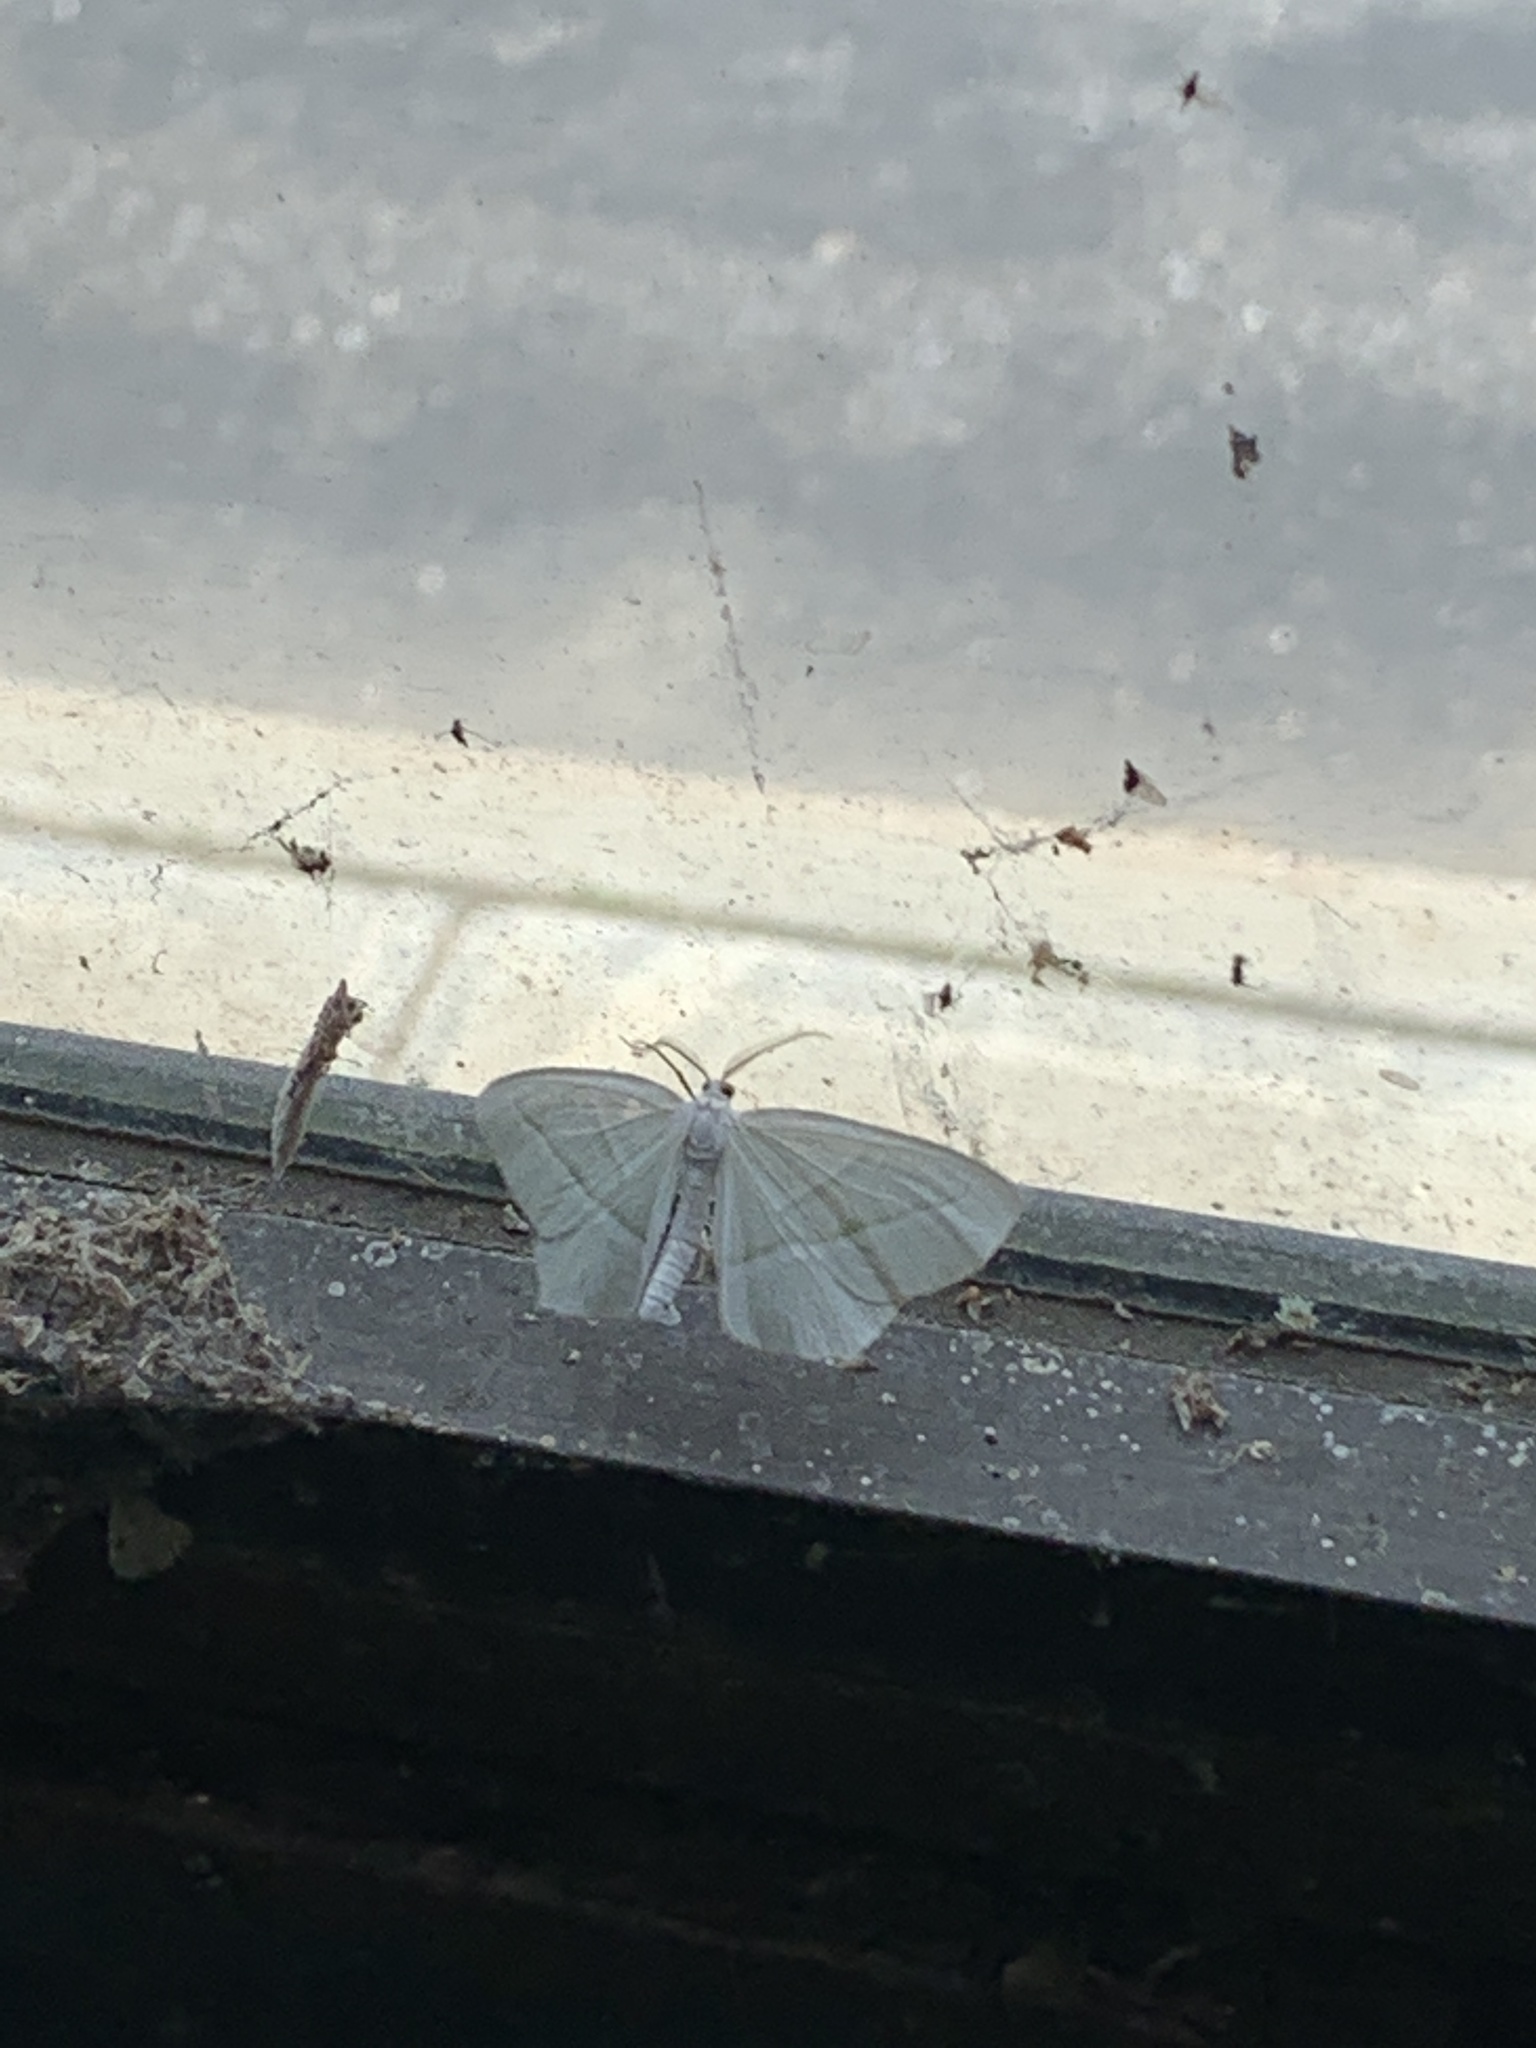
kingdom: Animalia
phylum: Arthropoda
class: Insecta
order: Lepidoptera
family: Geometridae
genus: Campaea
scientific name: Campaea perlata
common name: Fringed looper
